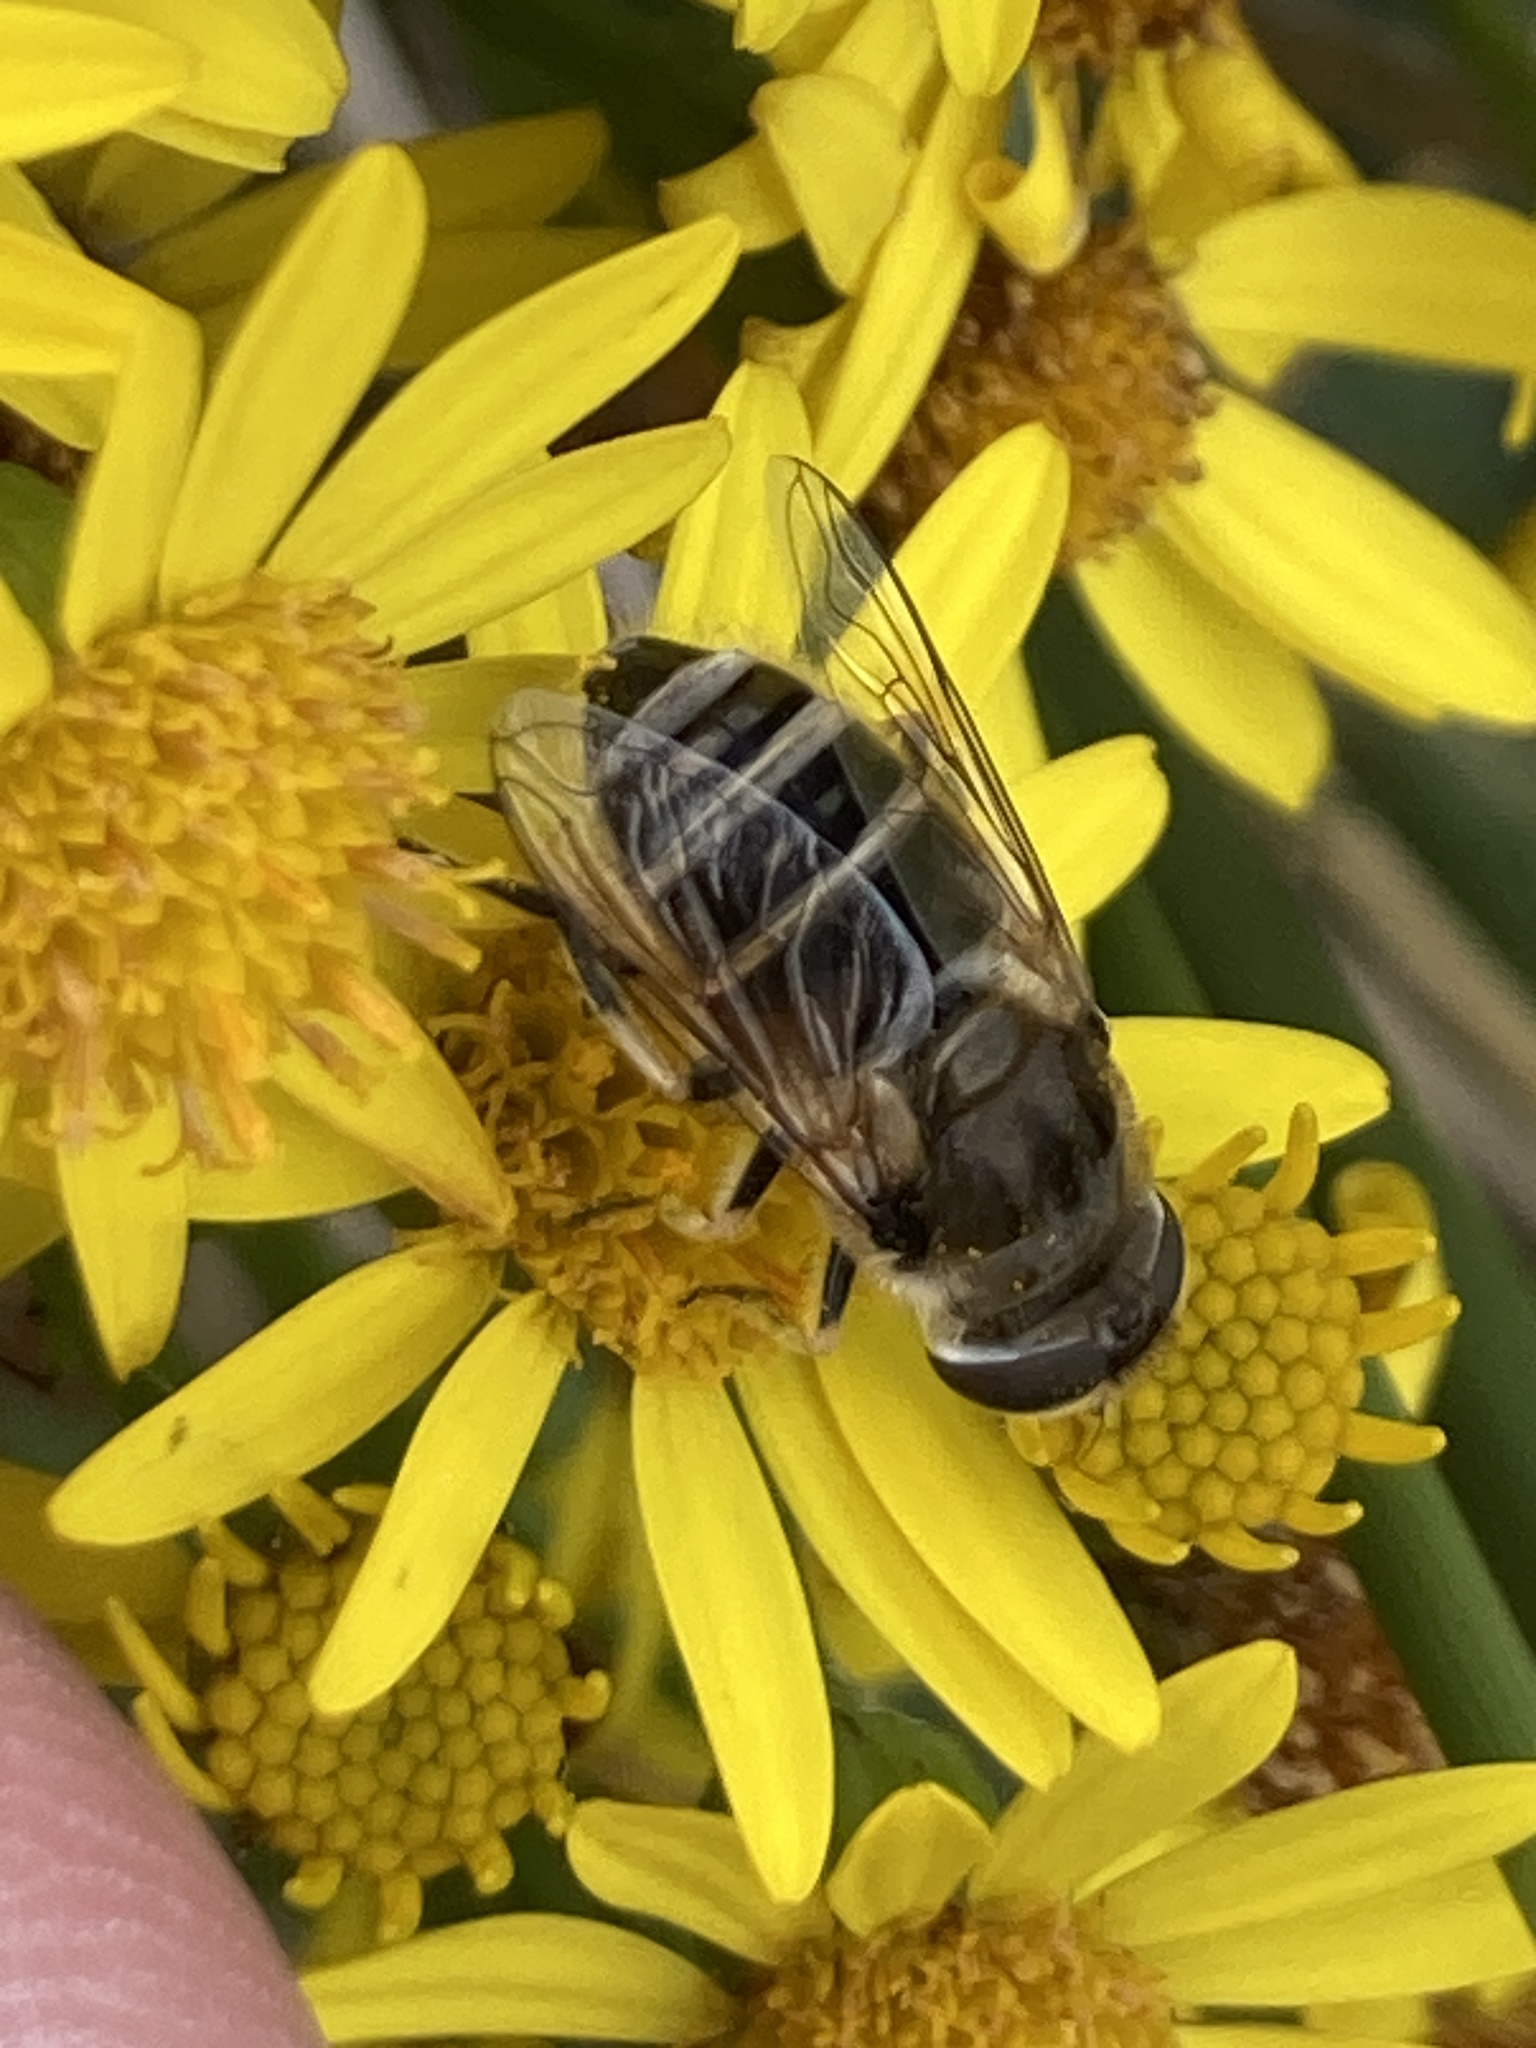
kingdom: Animalia
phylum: Arthropoda
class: Insecta
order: Diptera
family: Syrphidae
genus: Eoseristalis
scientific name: Eoseristalis
